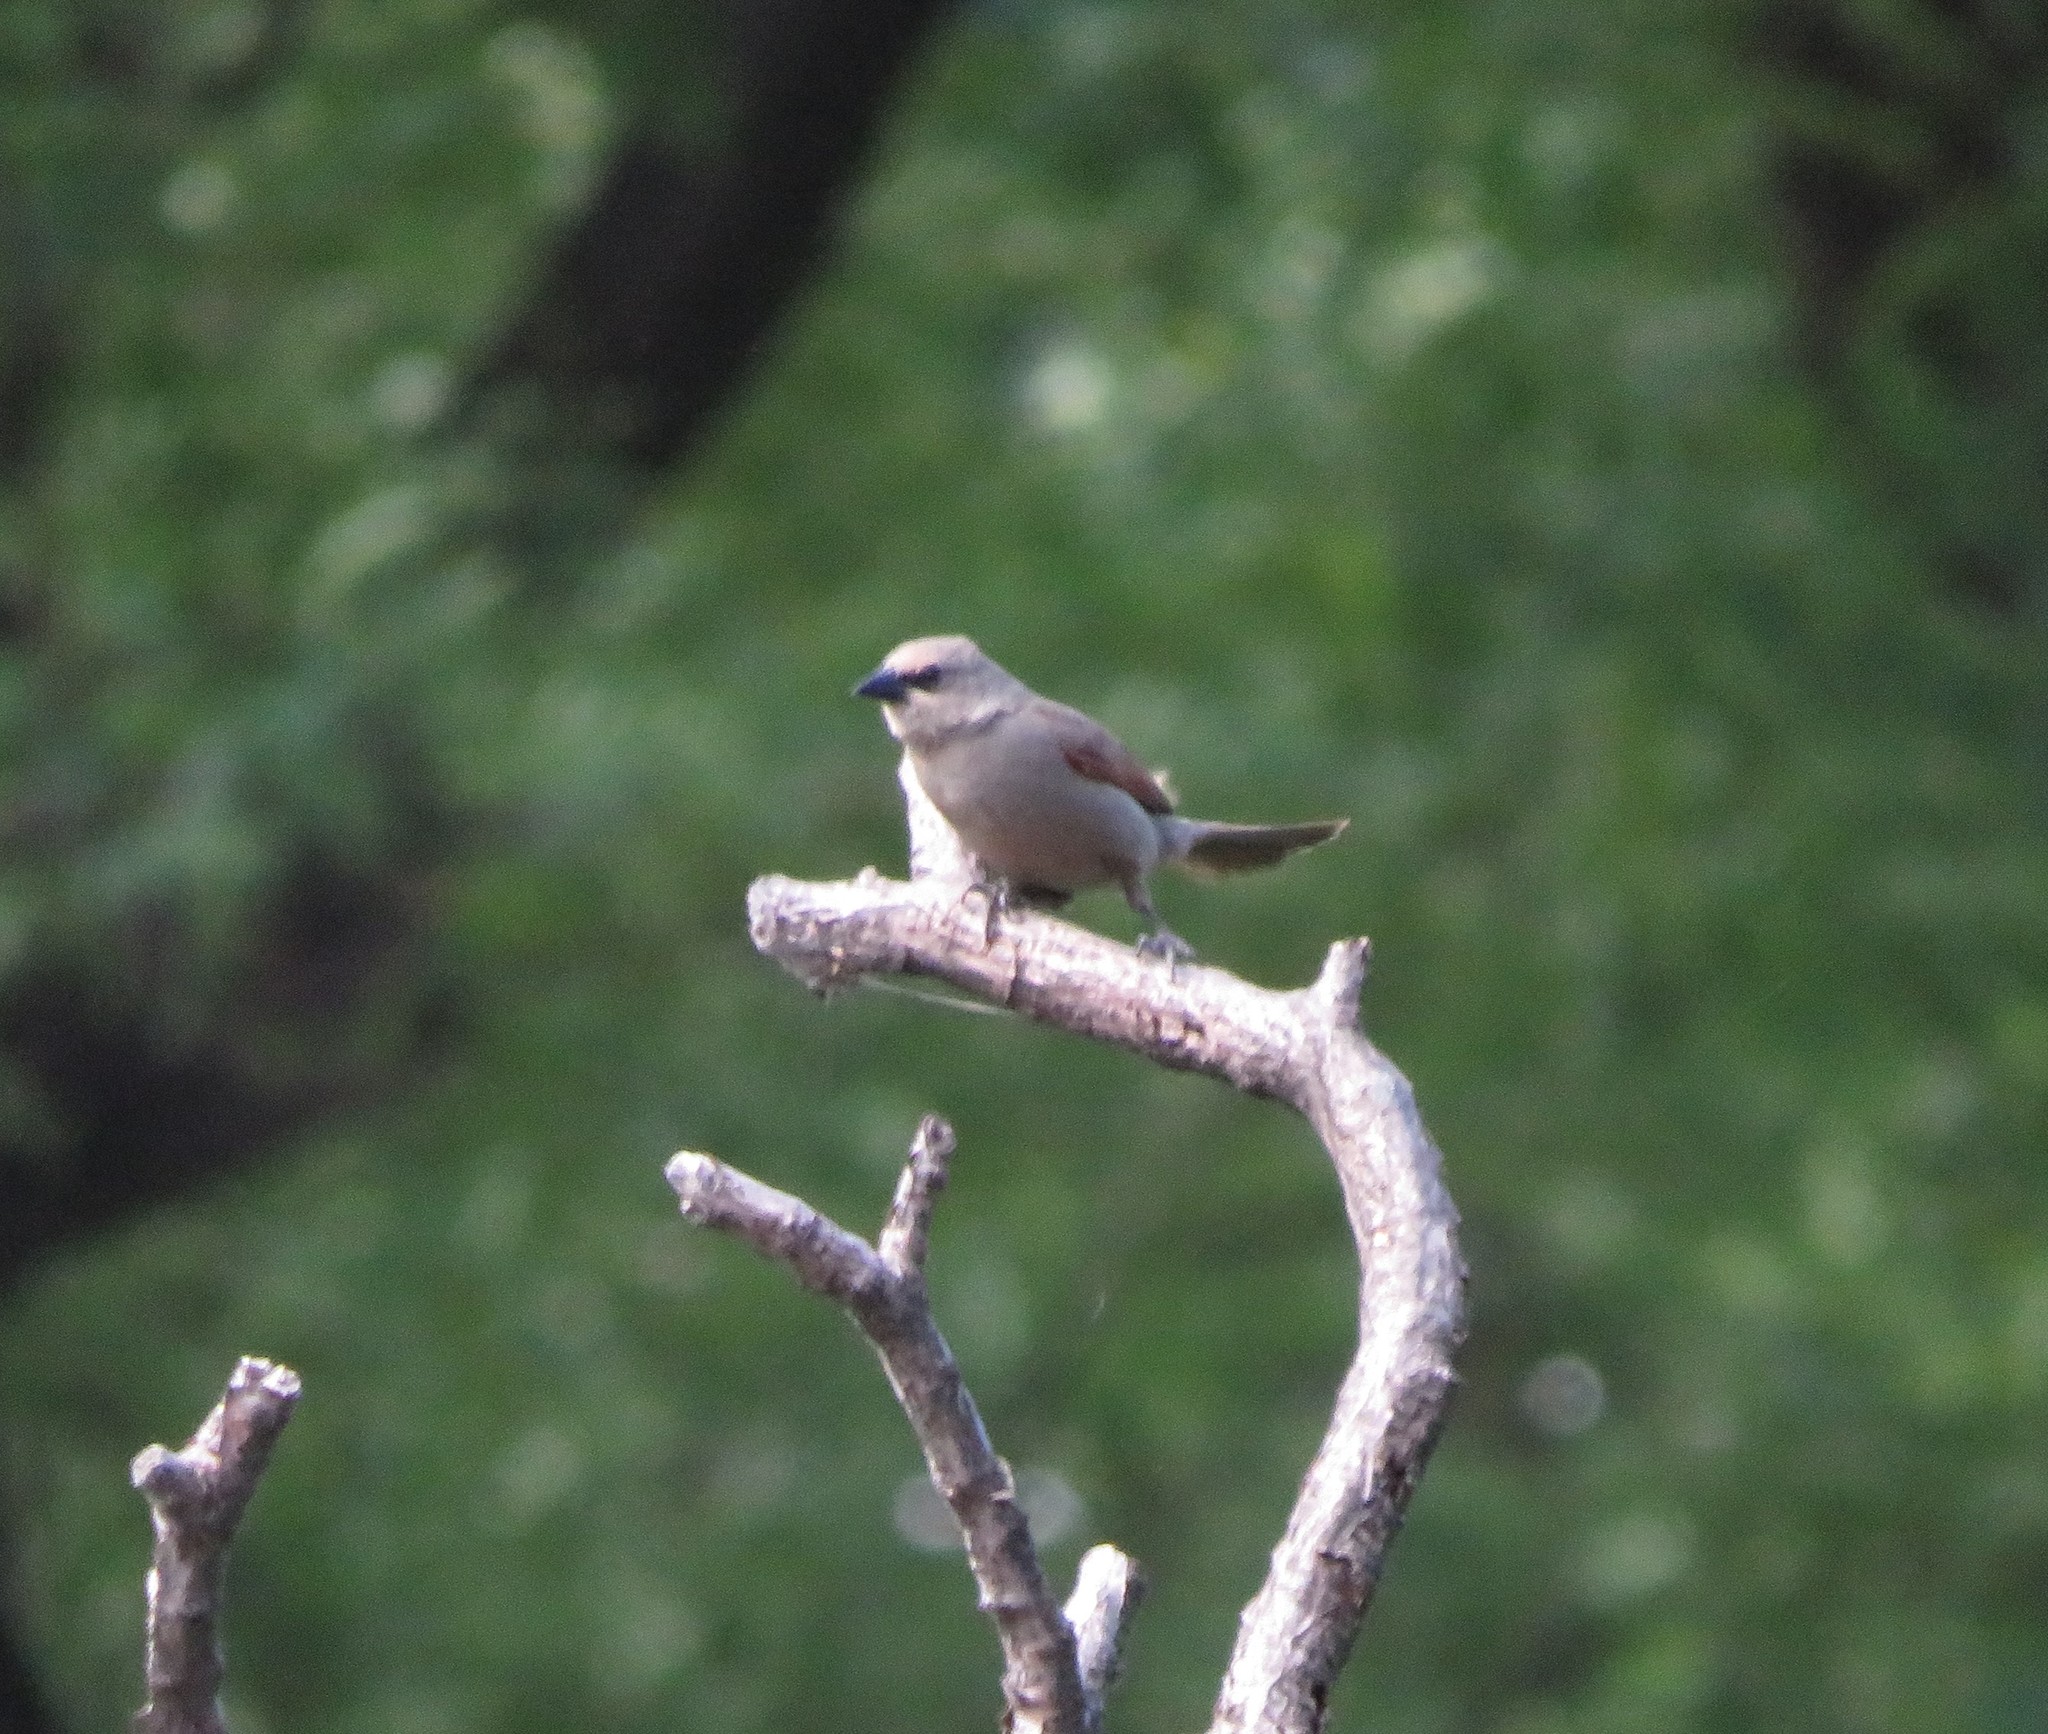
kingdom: Animalia
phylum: Chordata
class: Aves
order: Passeriformes
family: Icteridae
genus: Agelaioides
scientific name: Agelaioides badius
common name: Baywing
